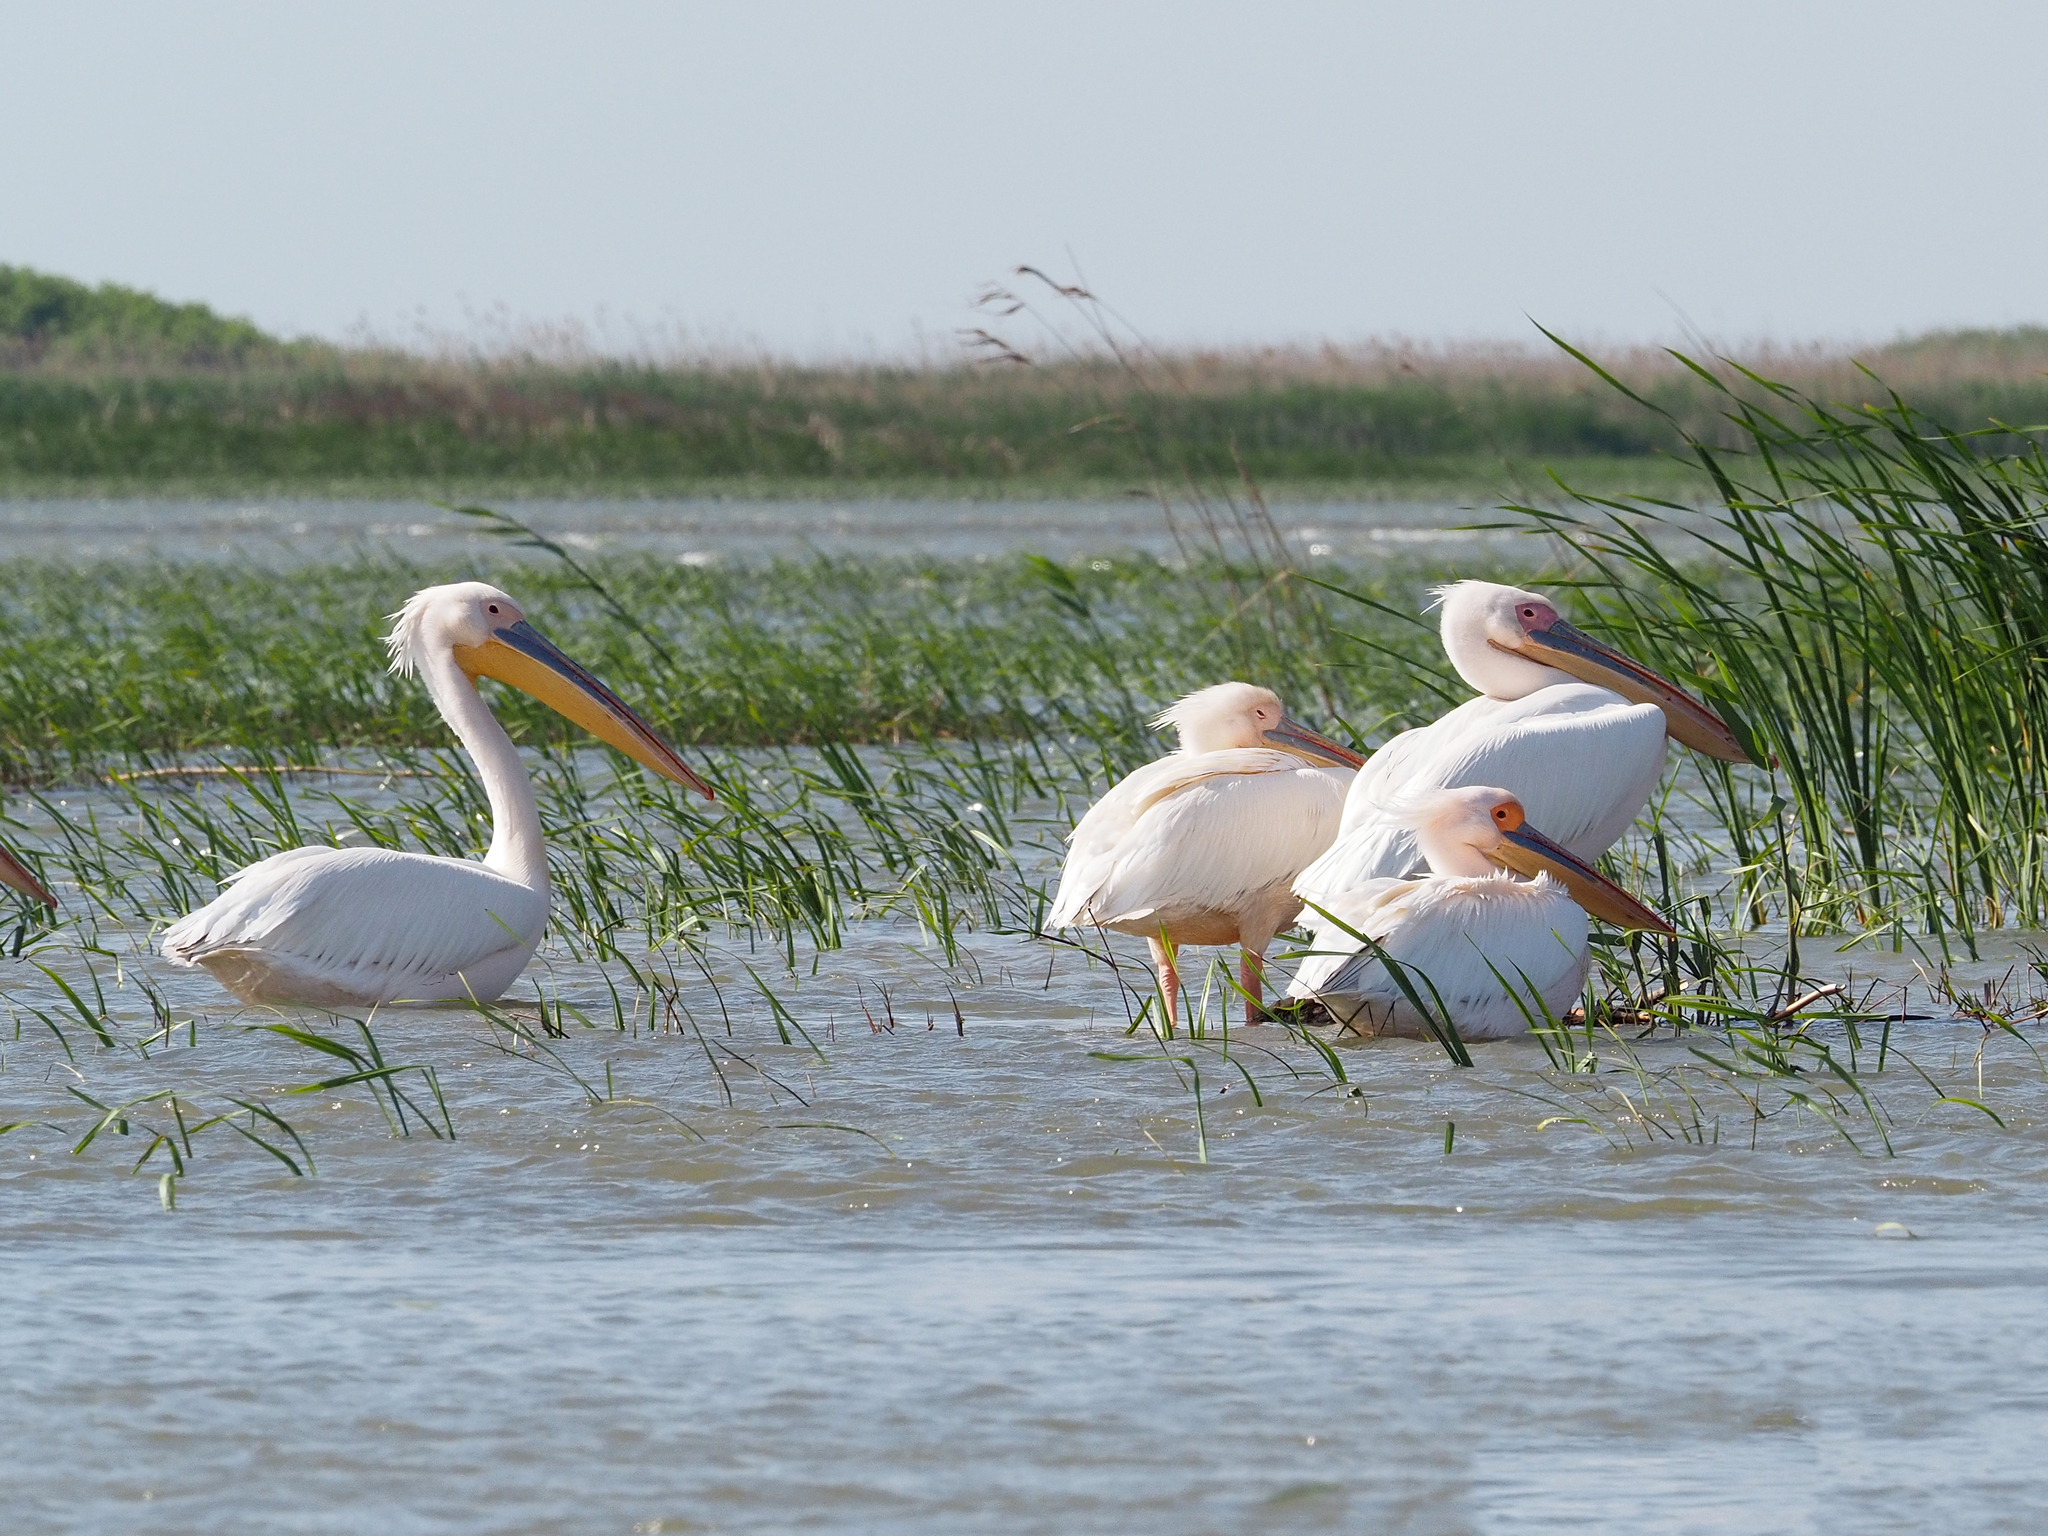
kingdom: Animalia
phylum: Chordata
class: Aves
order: Pelecaniformes
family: Pelecanidae
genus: Pelecanus
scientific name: Pelecanus onocrotalus
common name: Great white pelican
